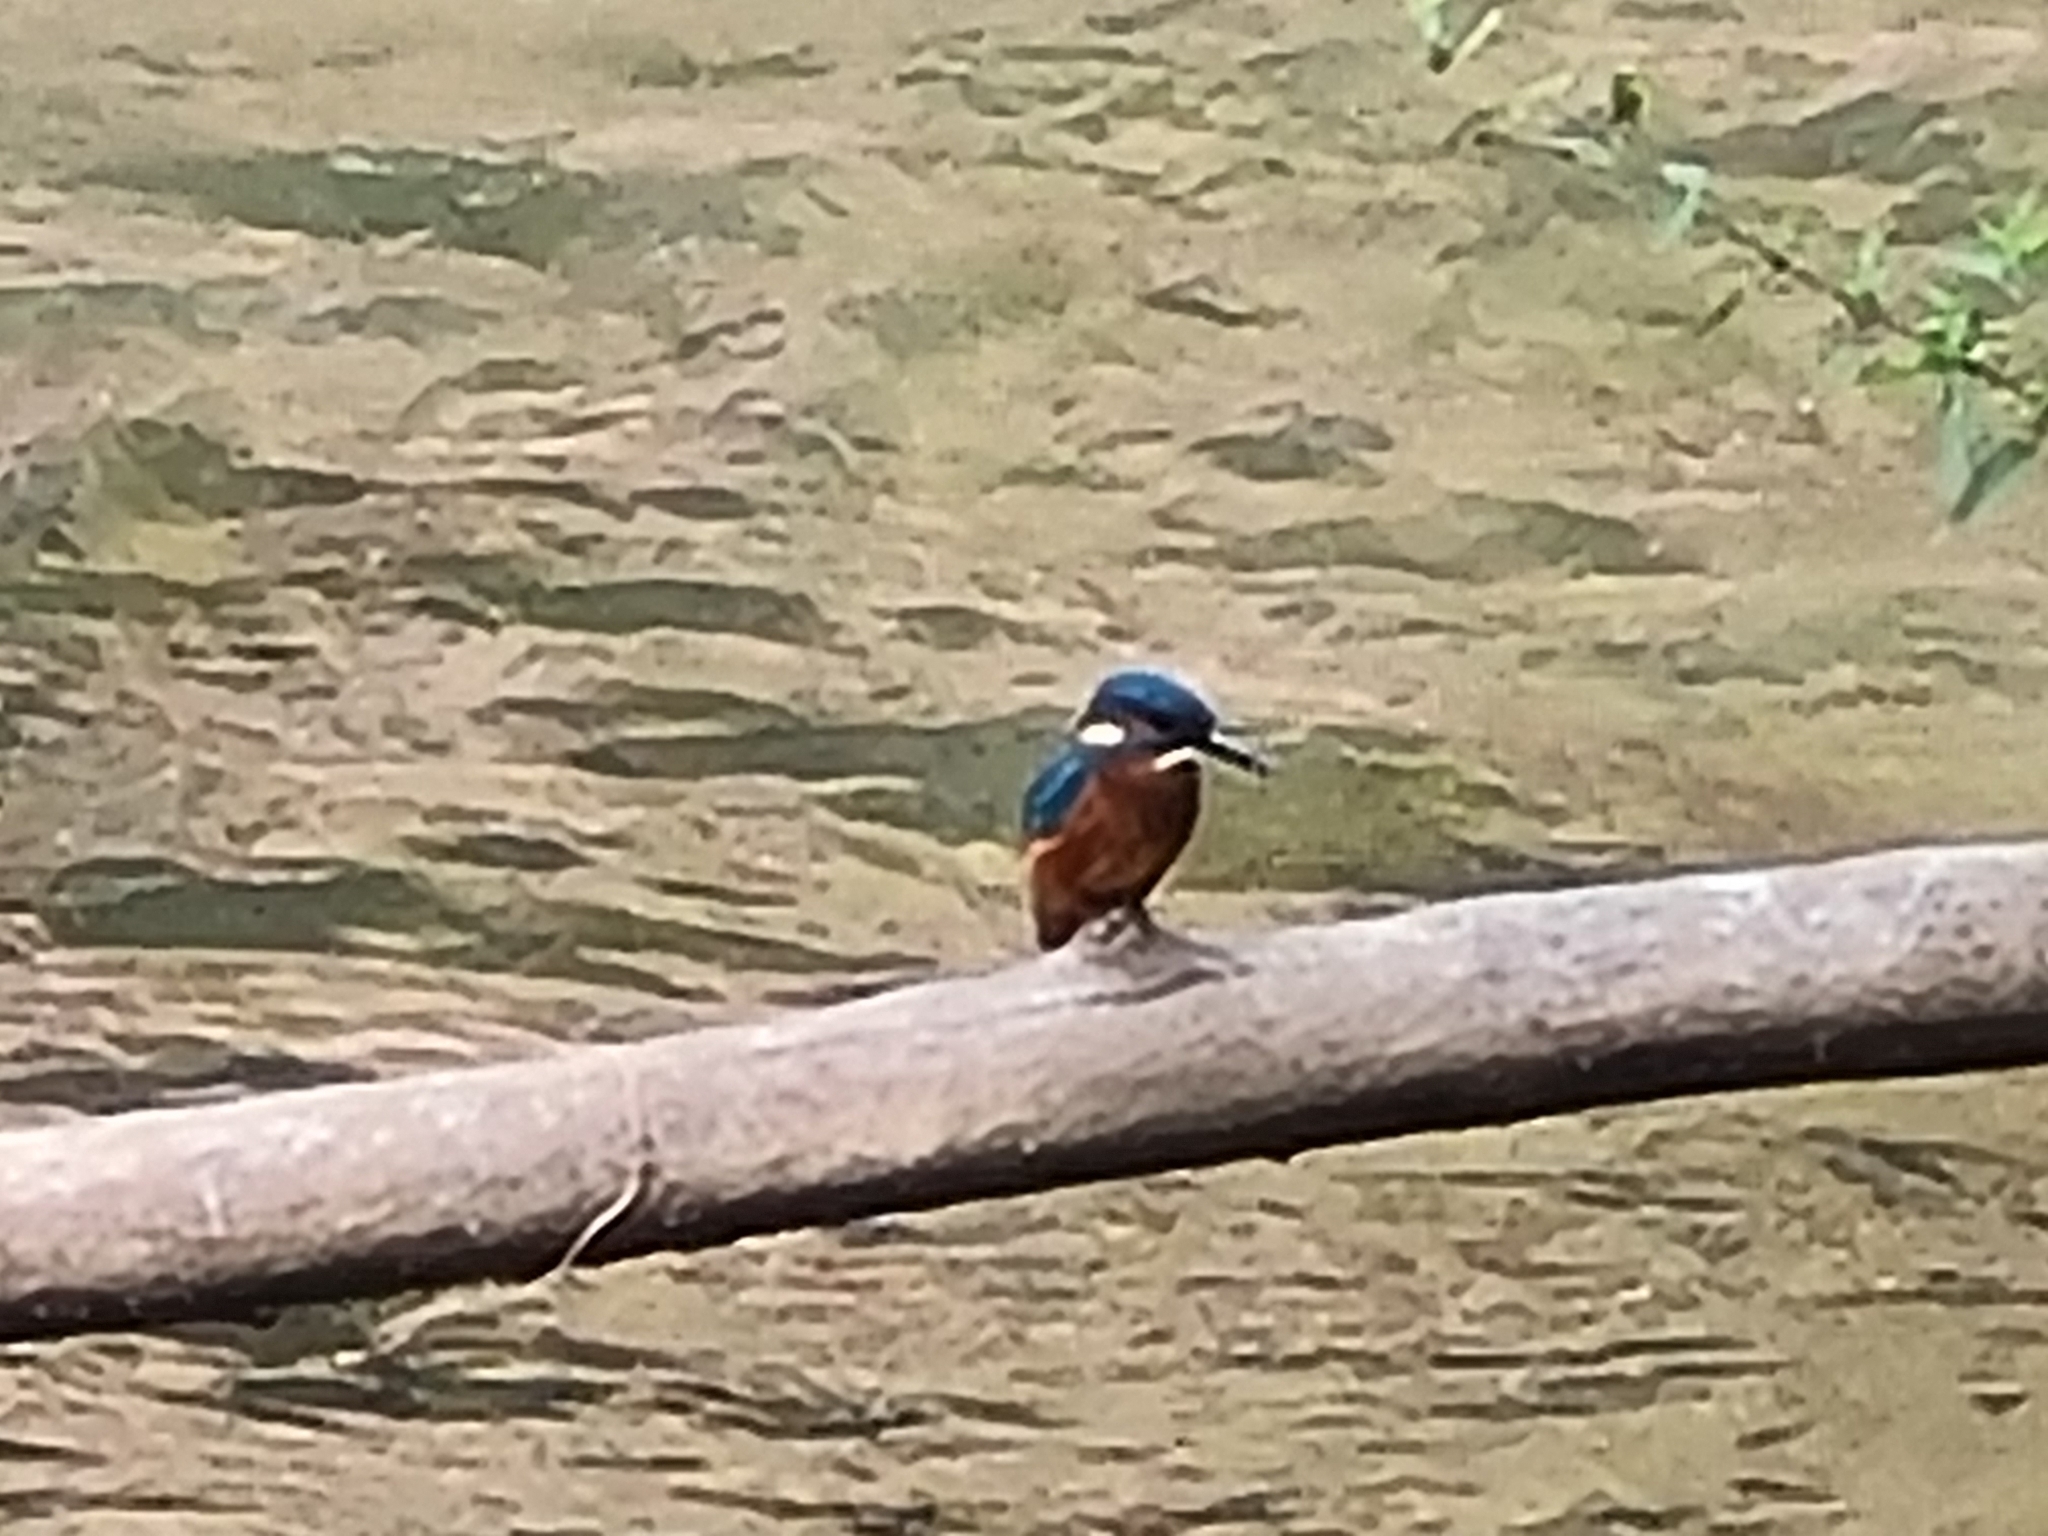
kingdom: Animalia
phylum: Chordata
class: Aves
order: Coraciiformes
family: Alcedinidae
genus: Alcedo
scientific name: Alcedo atthis
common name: Common kingfisher
